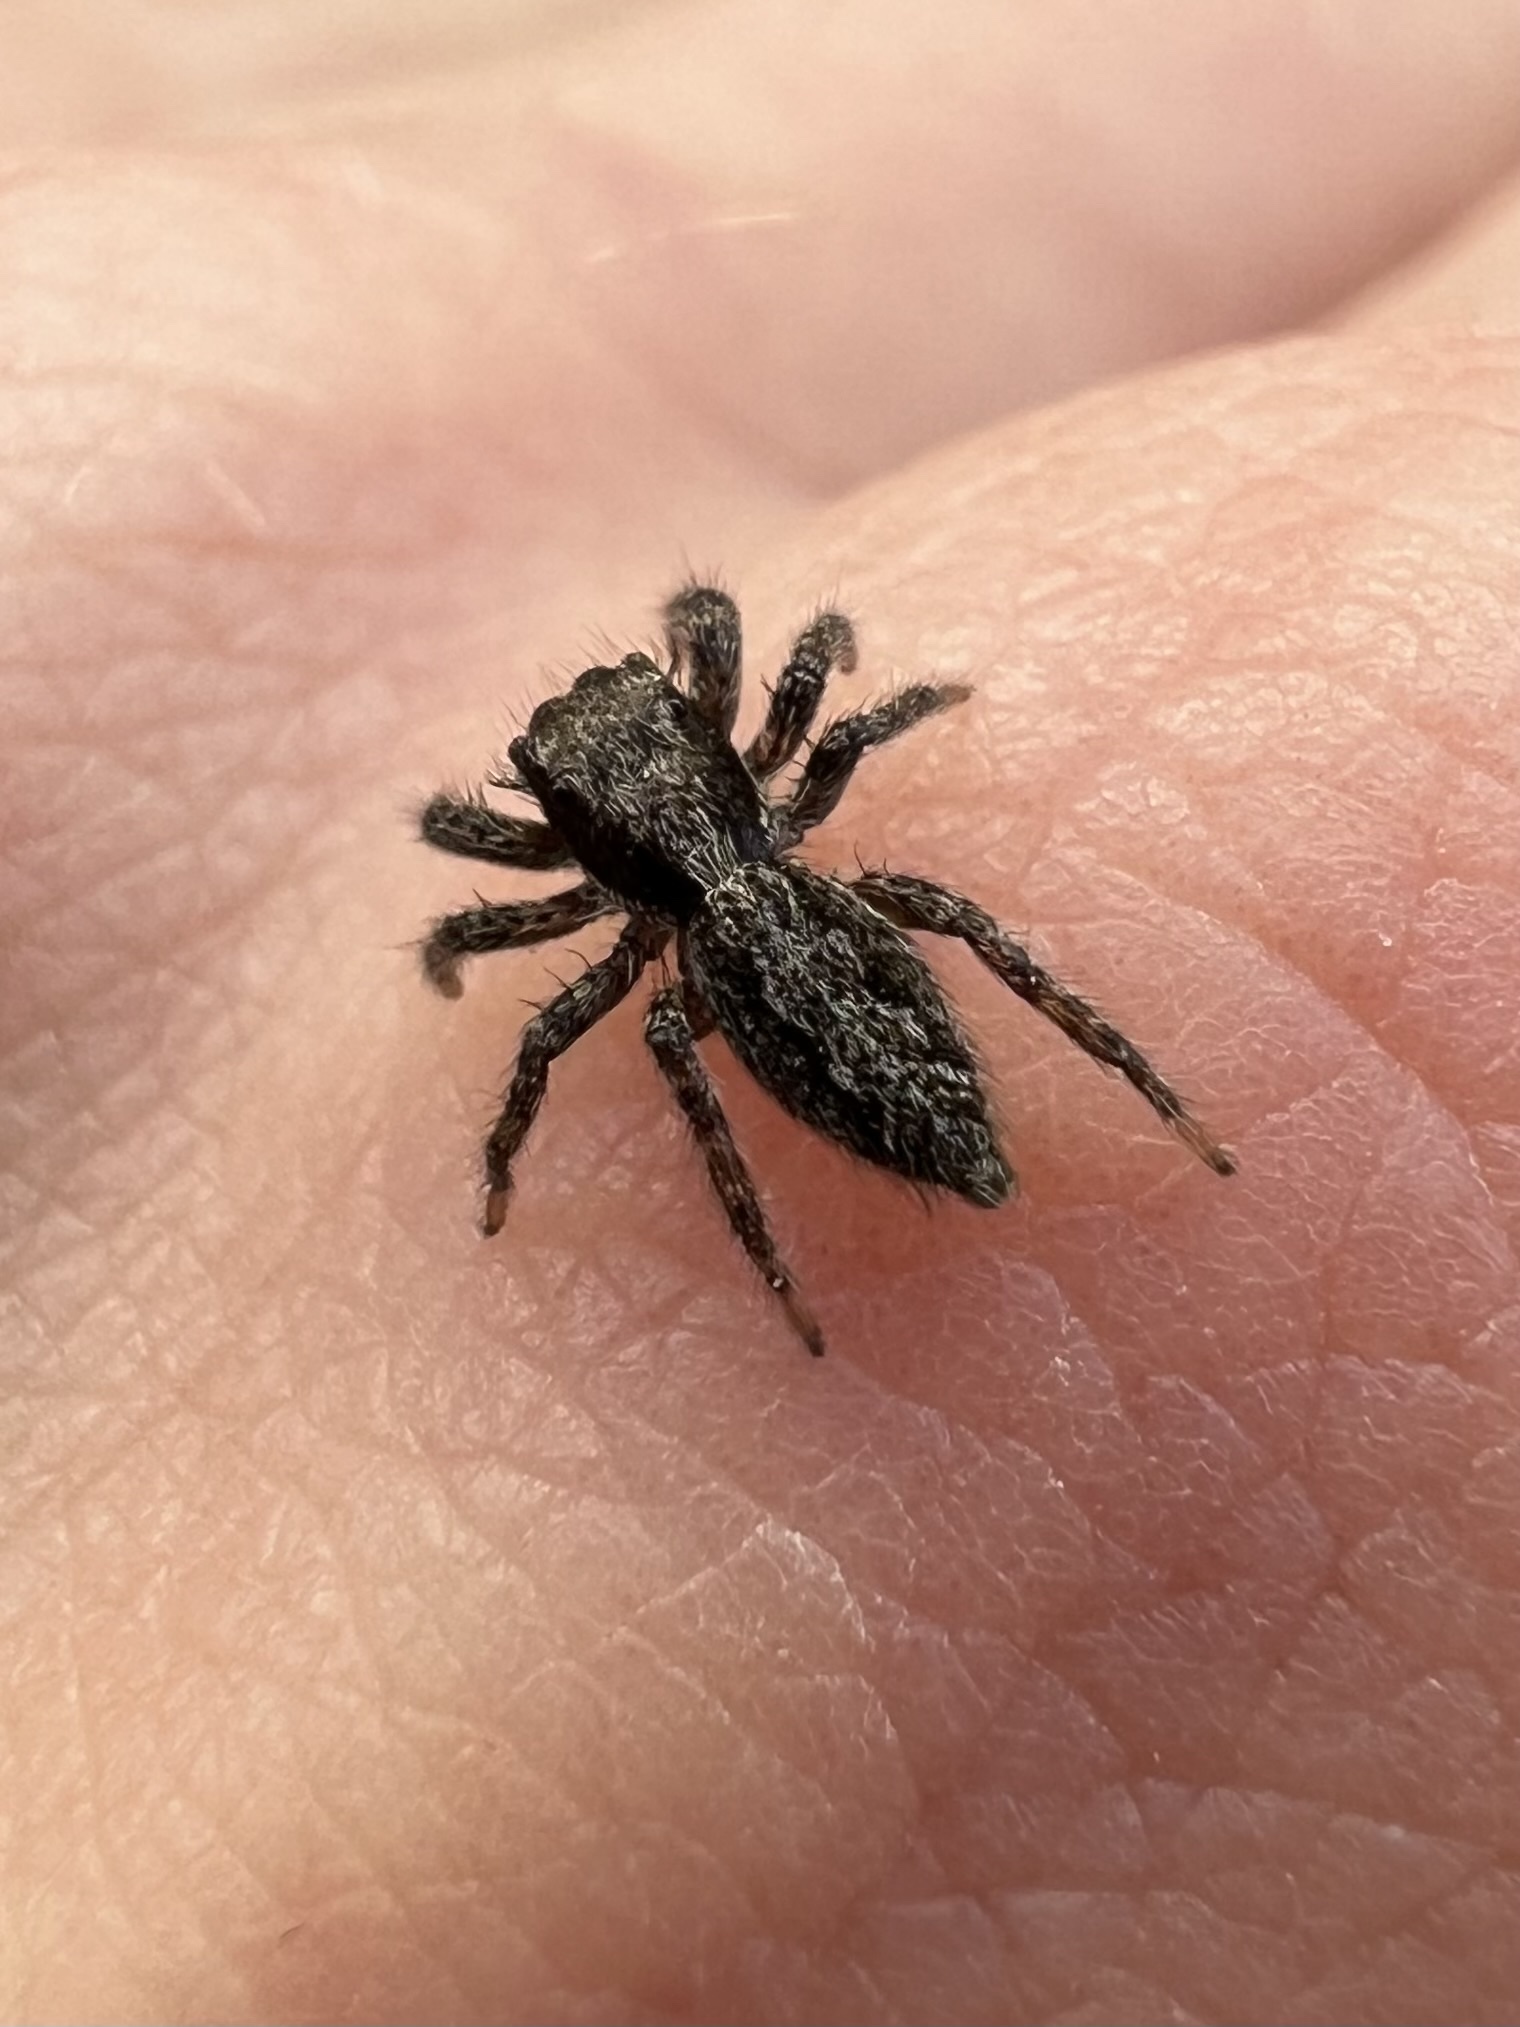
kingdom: Animalia
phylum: Arthropoda
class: Arachnida
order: Araneae
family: Salticidae
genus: Platycryptus
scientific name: Platycryptus californicus
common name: Jumping spiders
